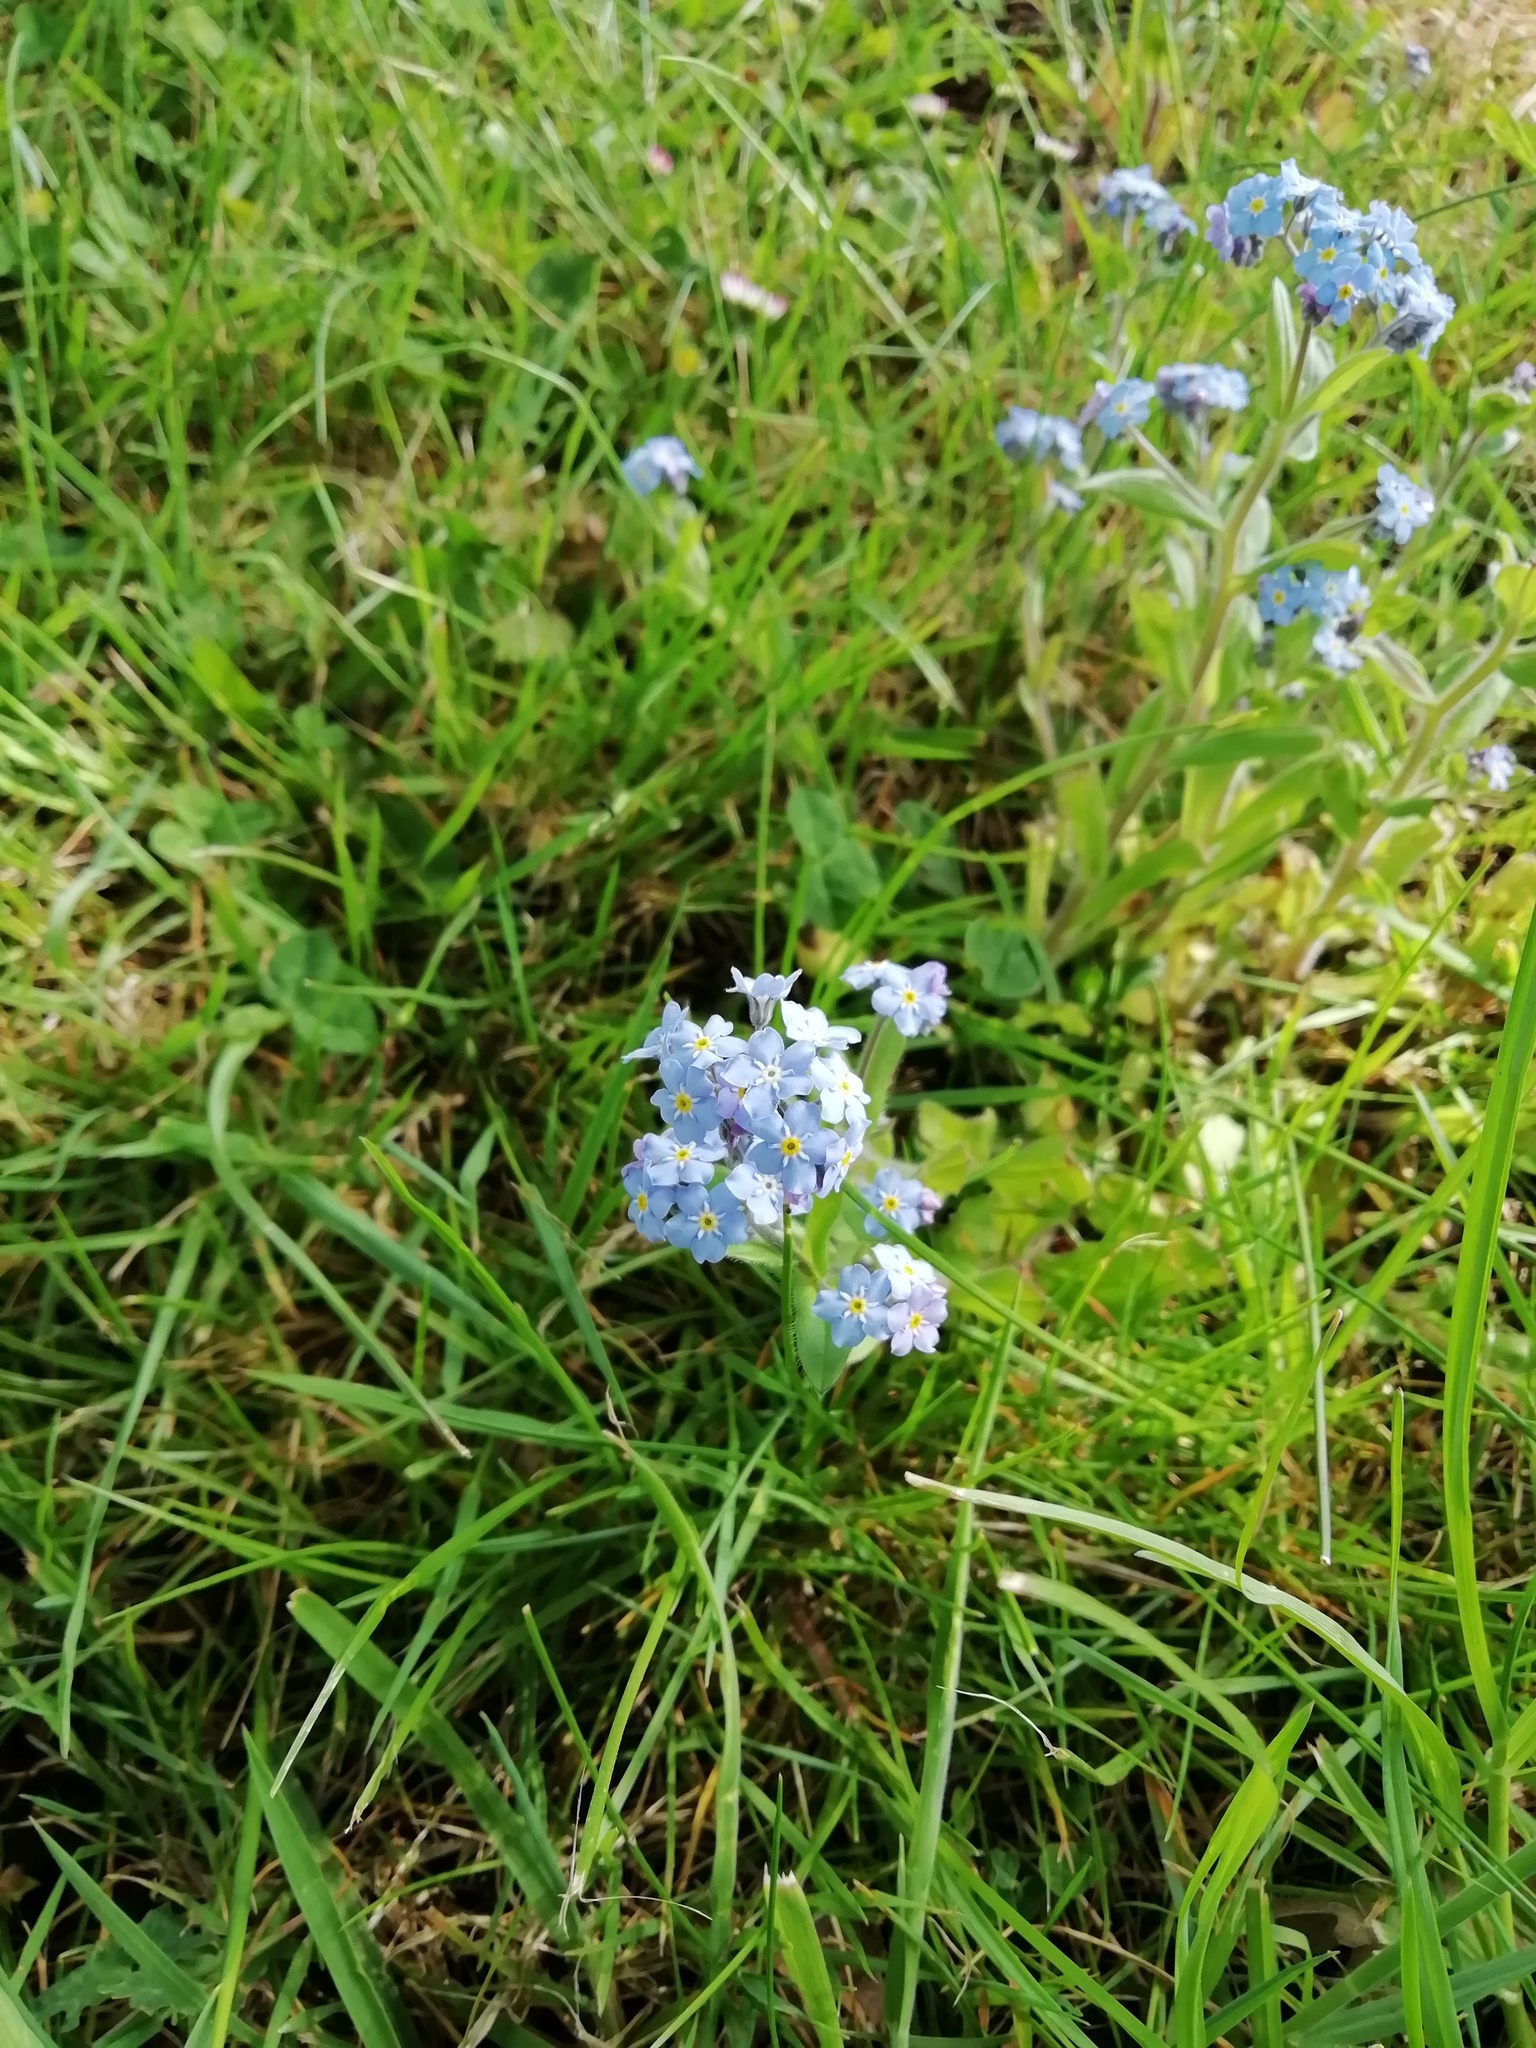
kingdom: Plantae
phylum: Tracheophyta
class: Magnoliopsida
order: Boraginales
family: Boraginaceae
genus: Myosotis
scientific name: Myosotis sylvatica
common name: Wood forget-me-not
